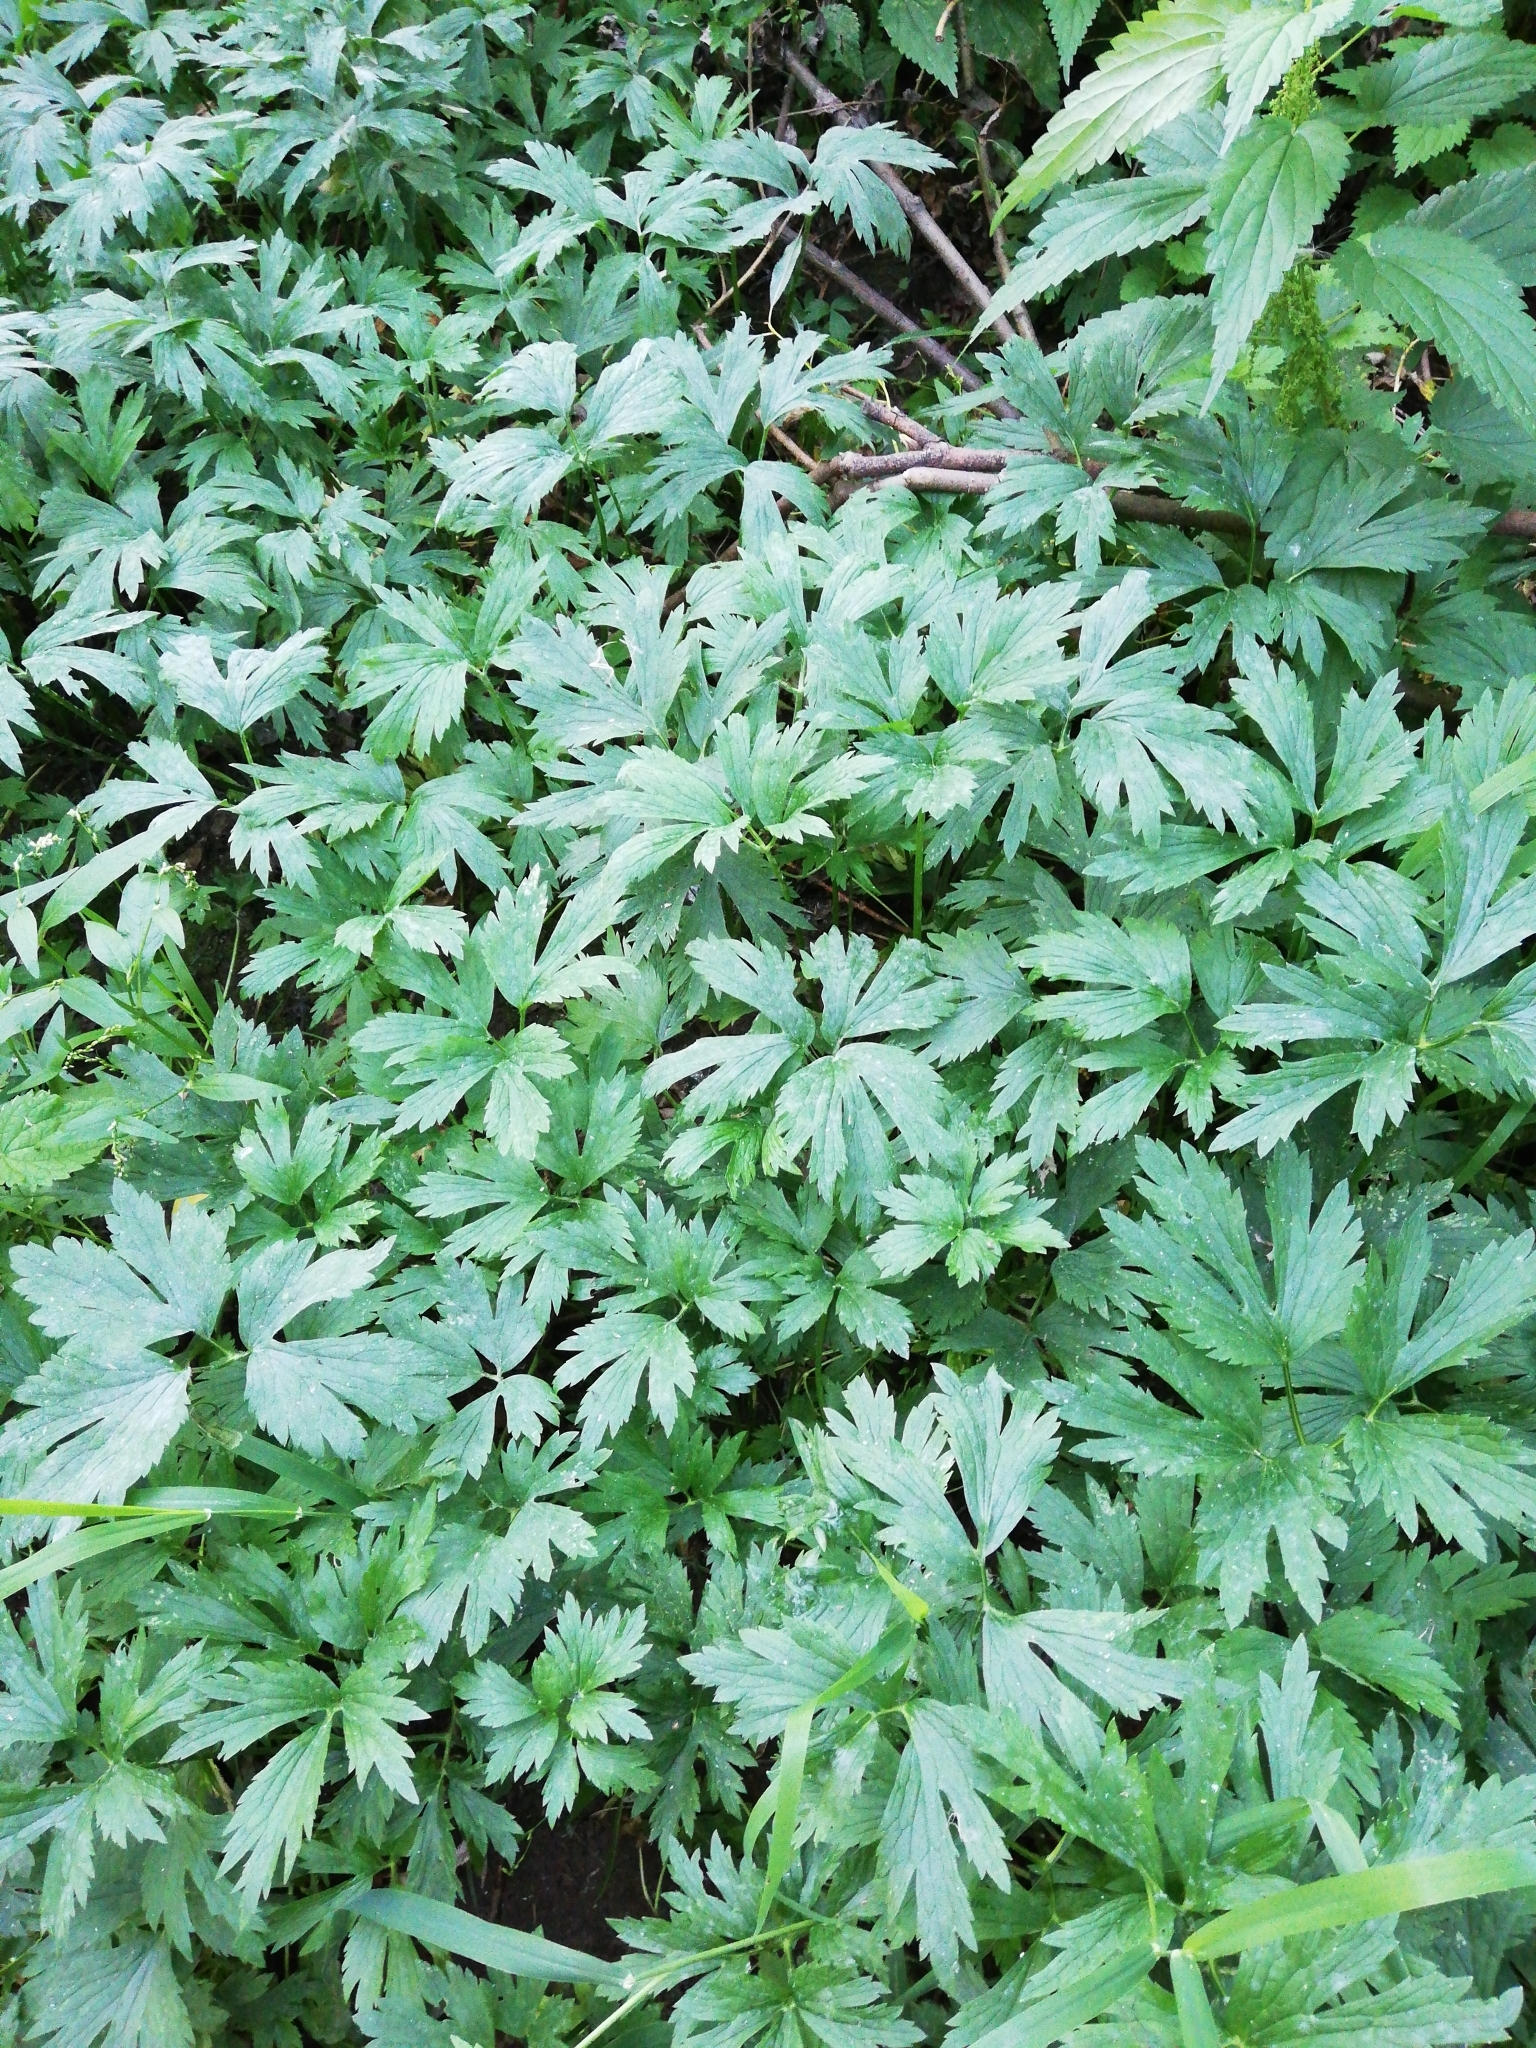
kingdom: Plantae
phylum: Tracheophyta
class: Magnoliopsida
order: Ranunculales
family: Ranunculaceae
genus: Ranunculus
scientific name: Ranunculus repens
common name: Creeping buttercup
